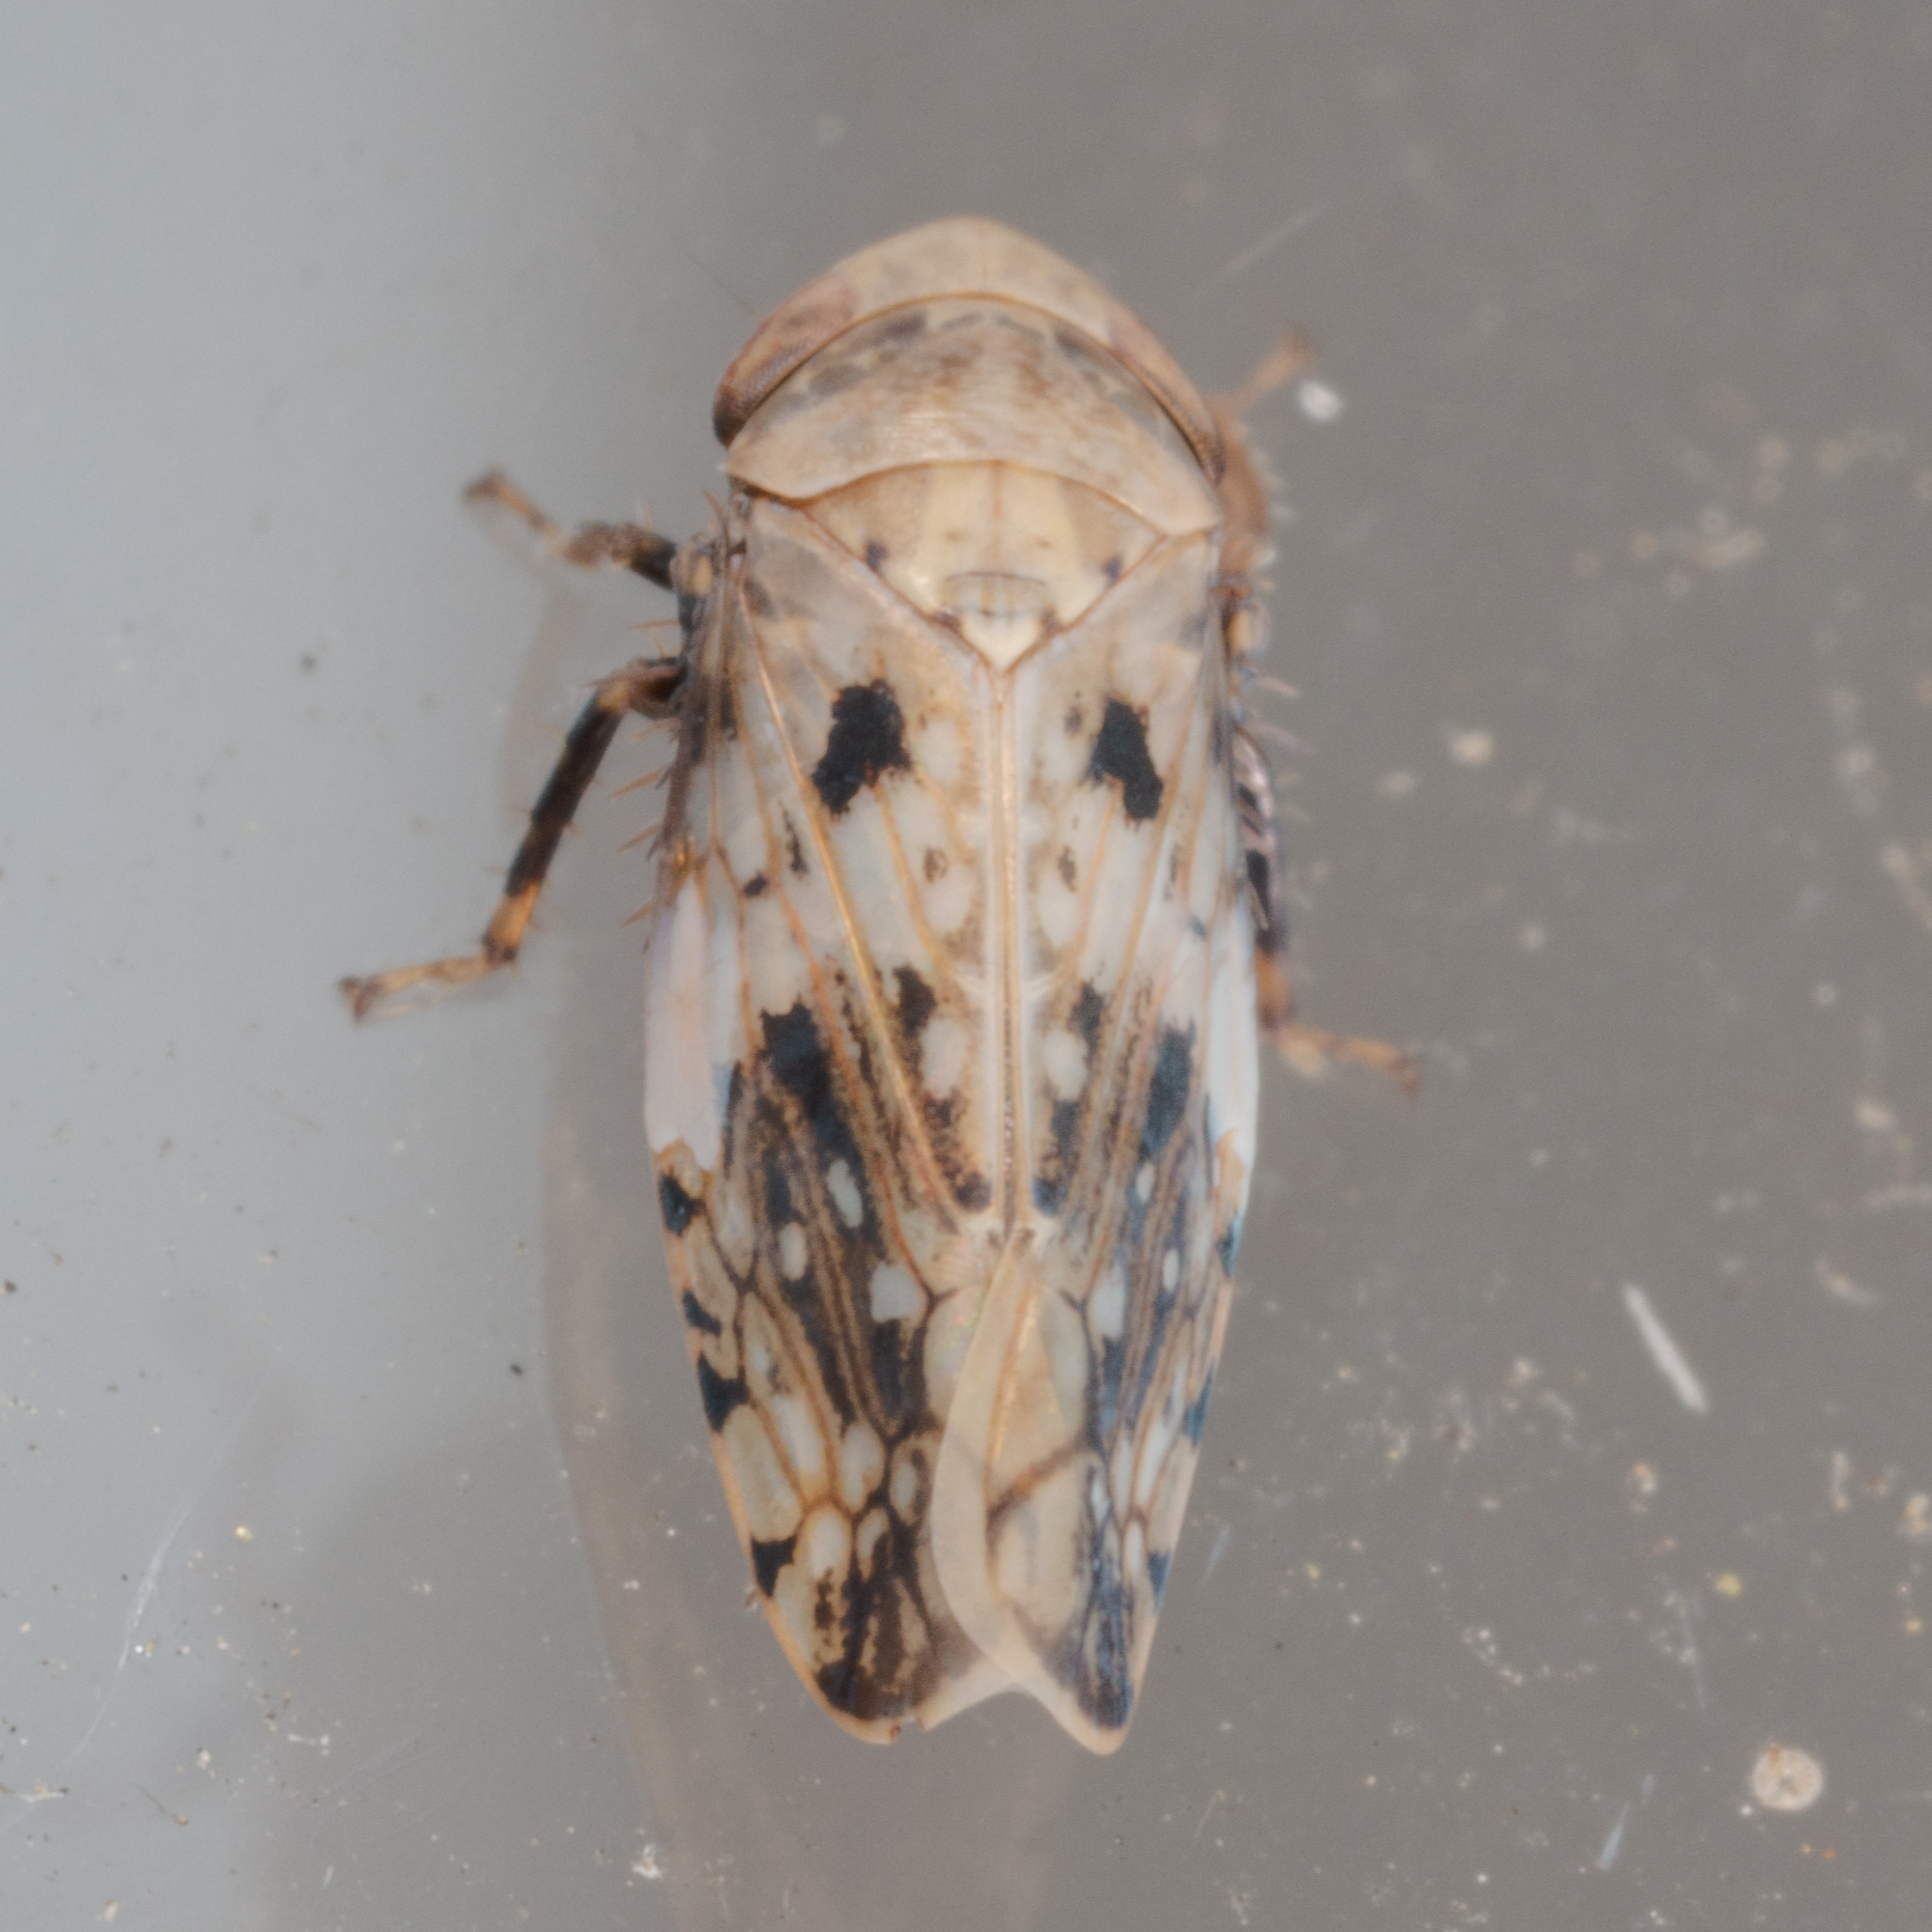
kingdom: Animalia
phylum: Arthropoda
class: Insecta
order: Hemiptera
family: Cicadellidae
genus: Menosoma
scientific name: Menosoma cinctum
